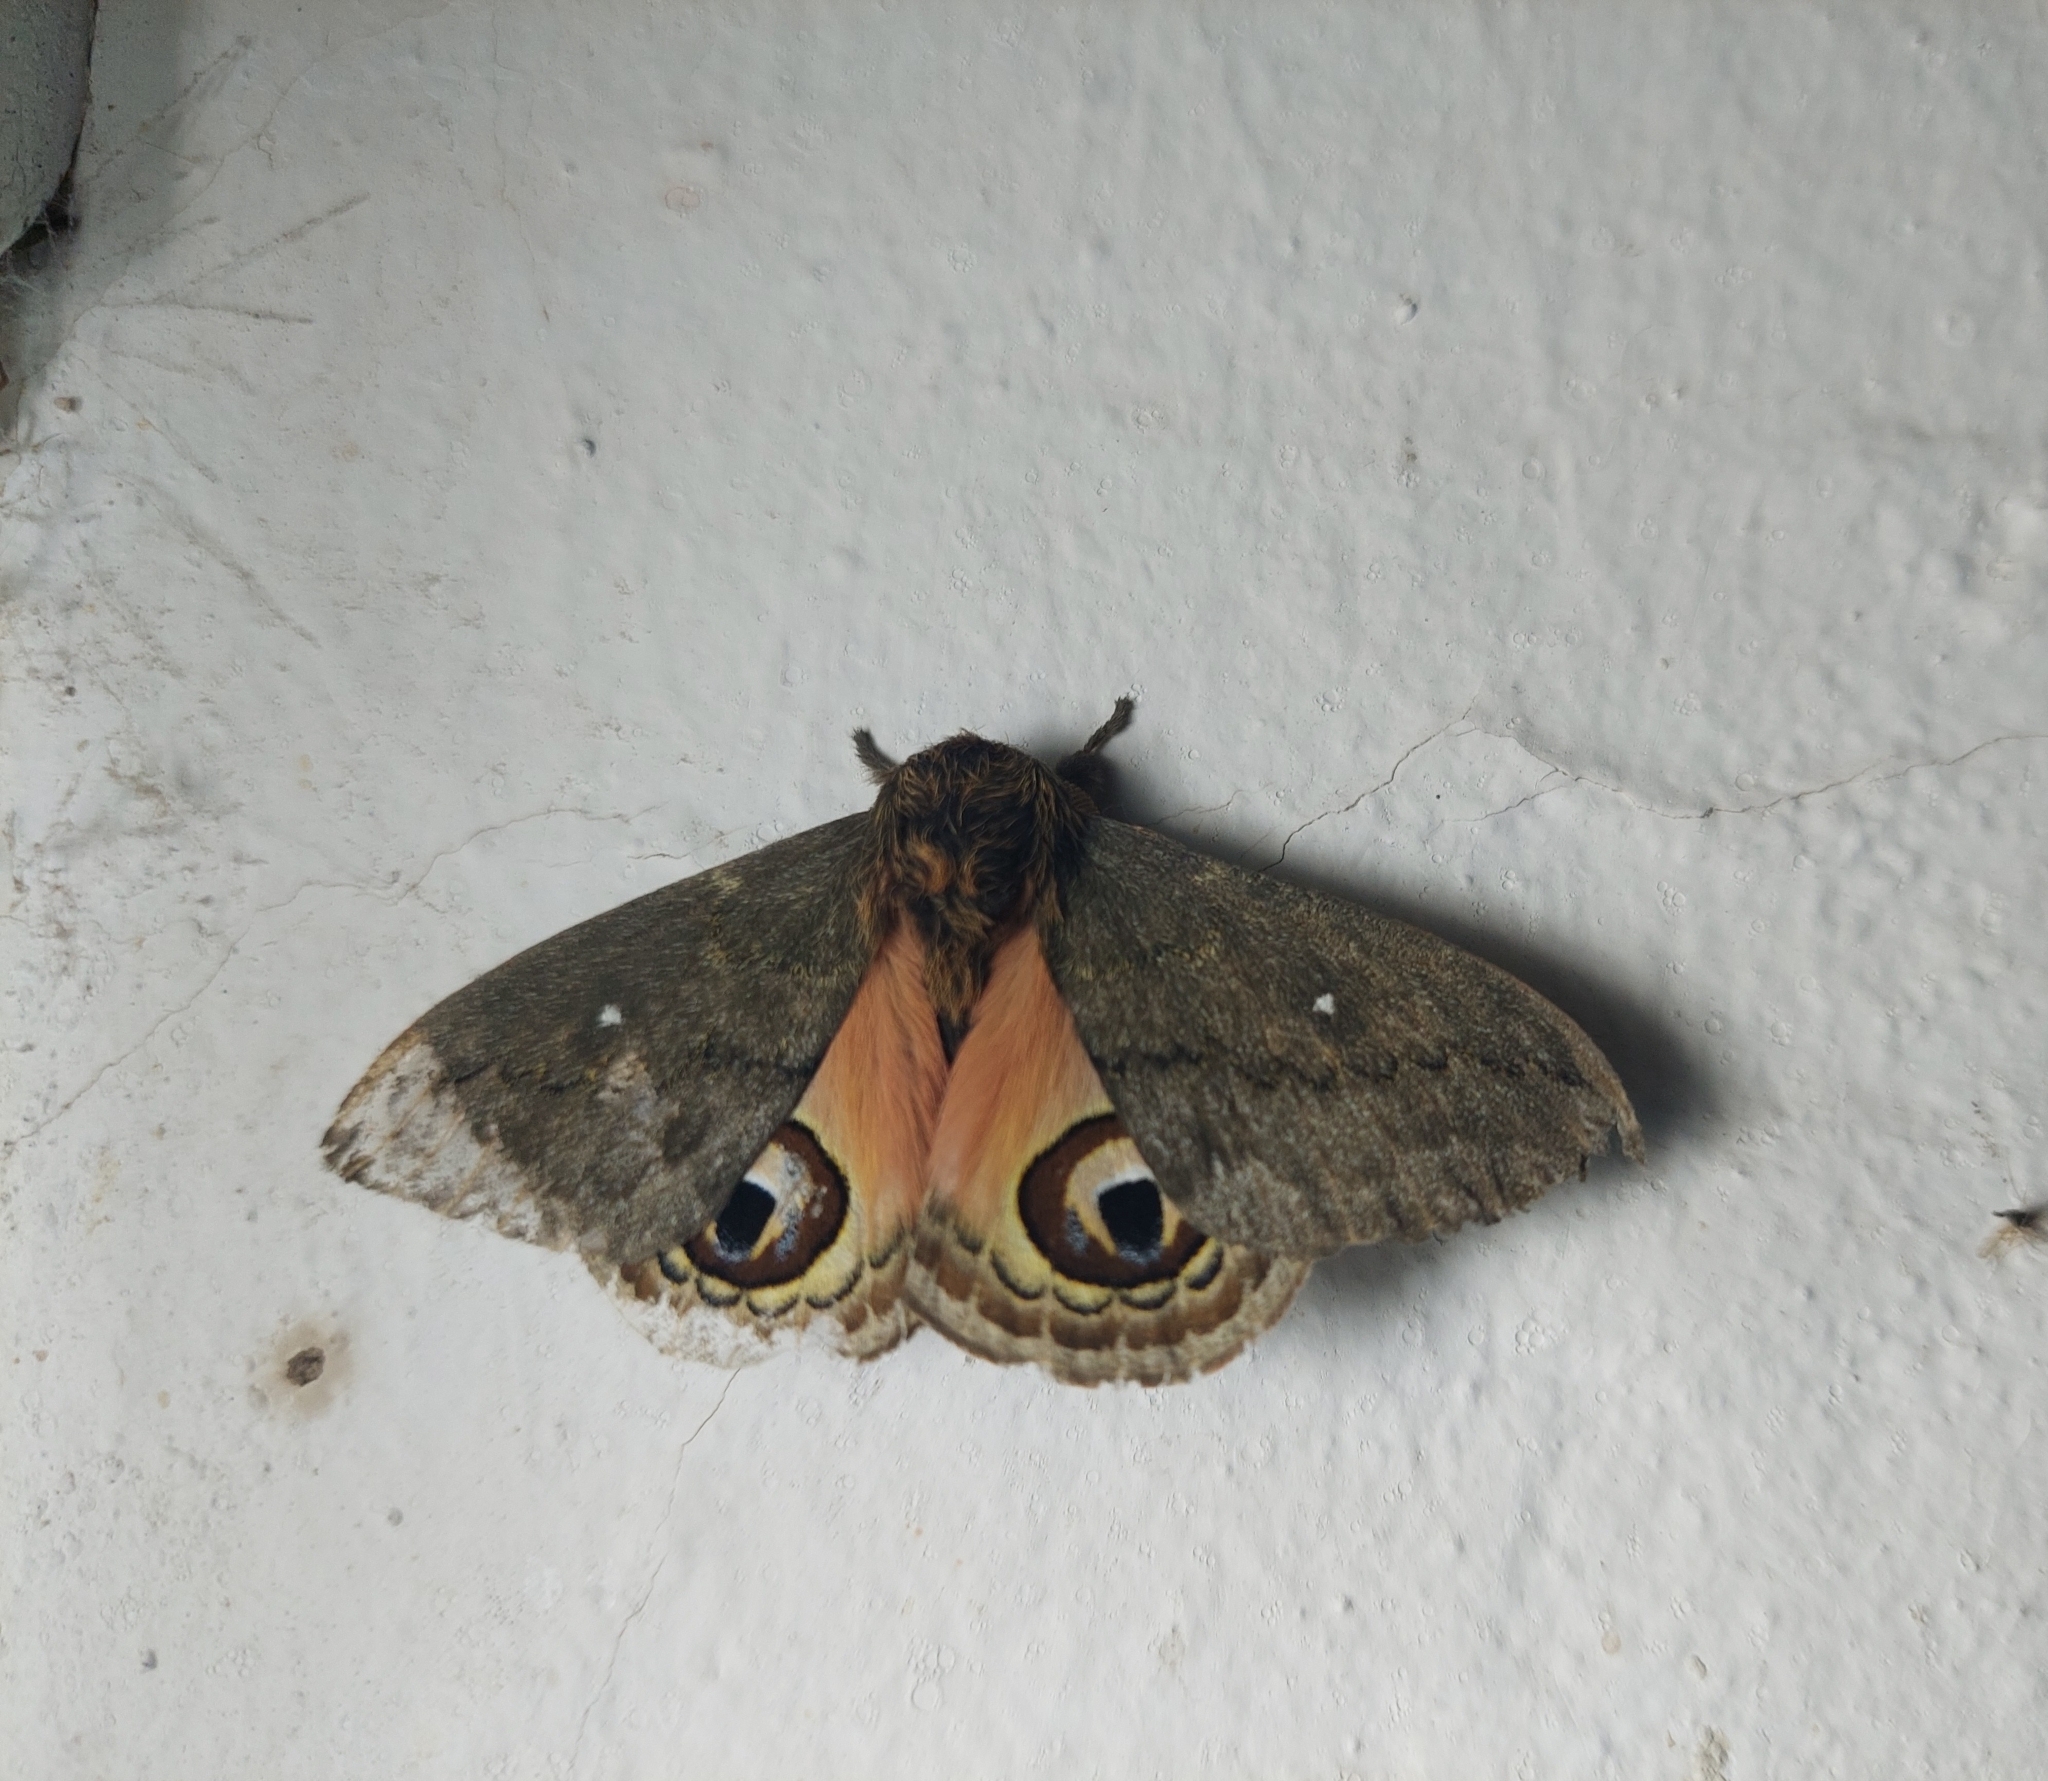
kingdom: Animalia
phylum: Arthropoda
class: Insecta
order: Lepidoptera
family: Saturniidae
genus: Leucanella
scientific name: Leucanella aspera
